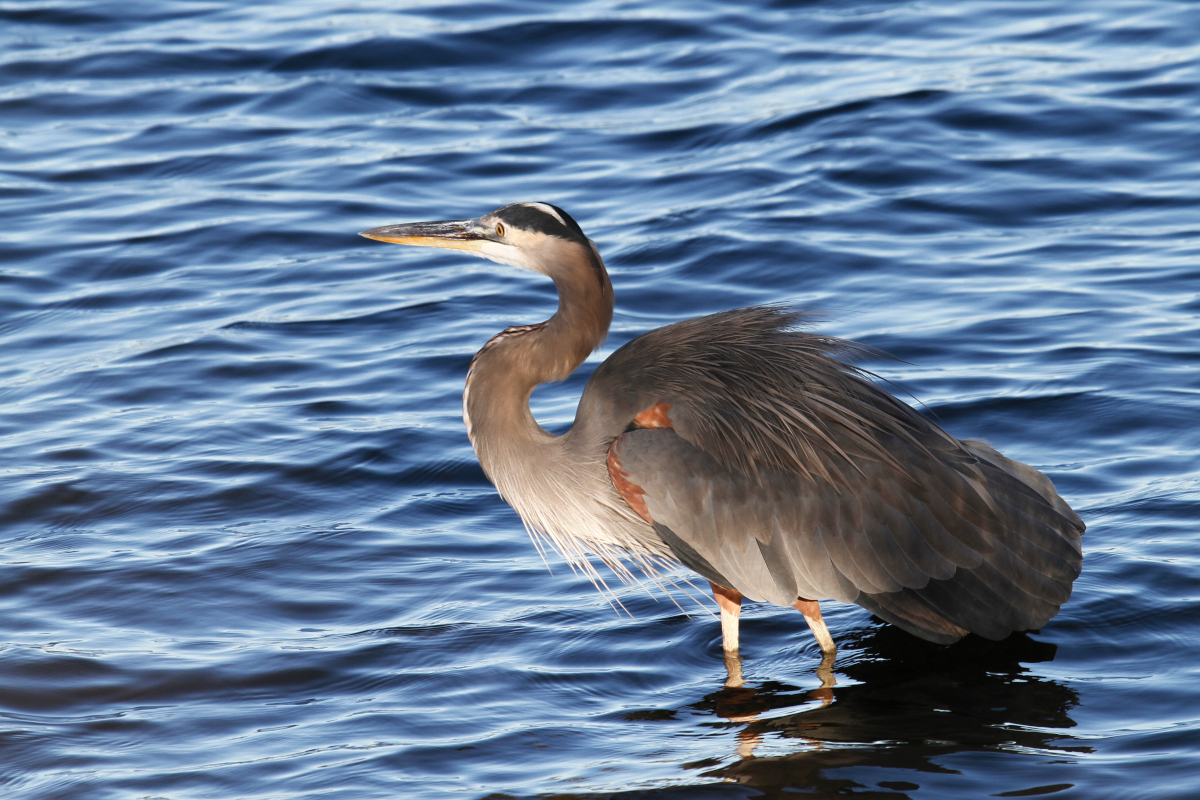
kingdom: Animalia
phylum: Chordata
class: Aves
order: Pelecaniformes
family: Ardeidae
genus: Ardea
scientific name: Ardea herodias
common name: Great blue heron
